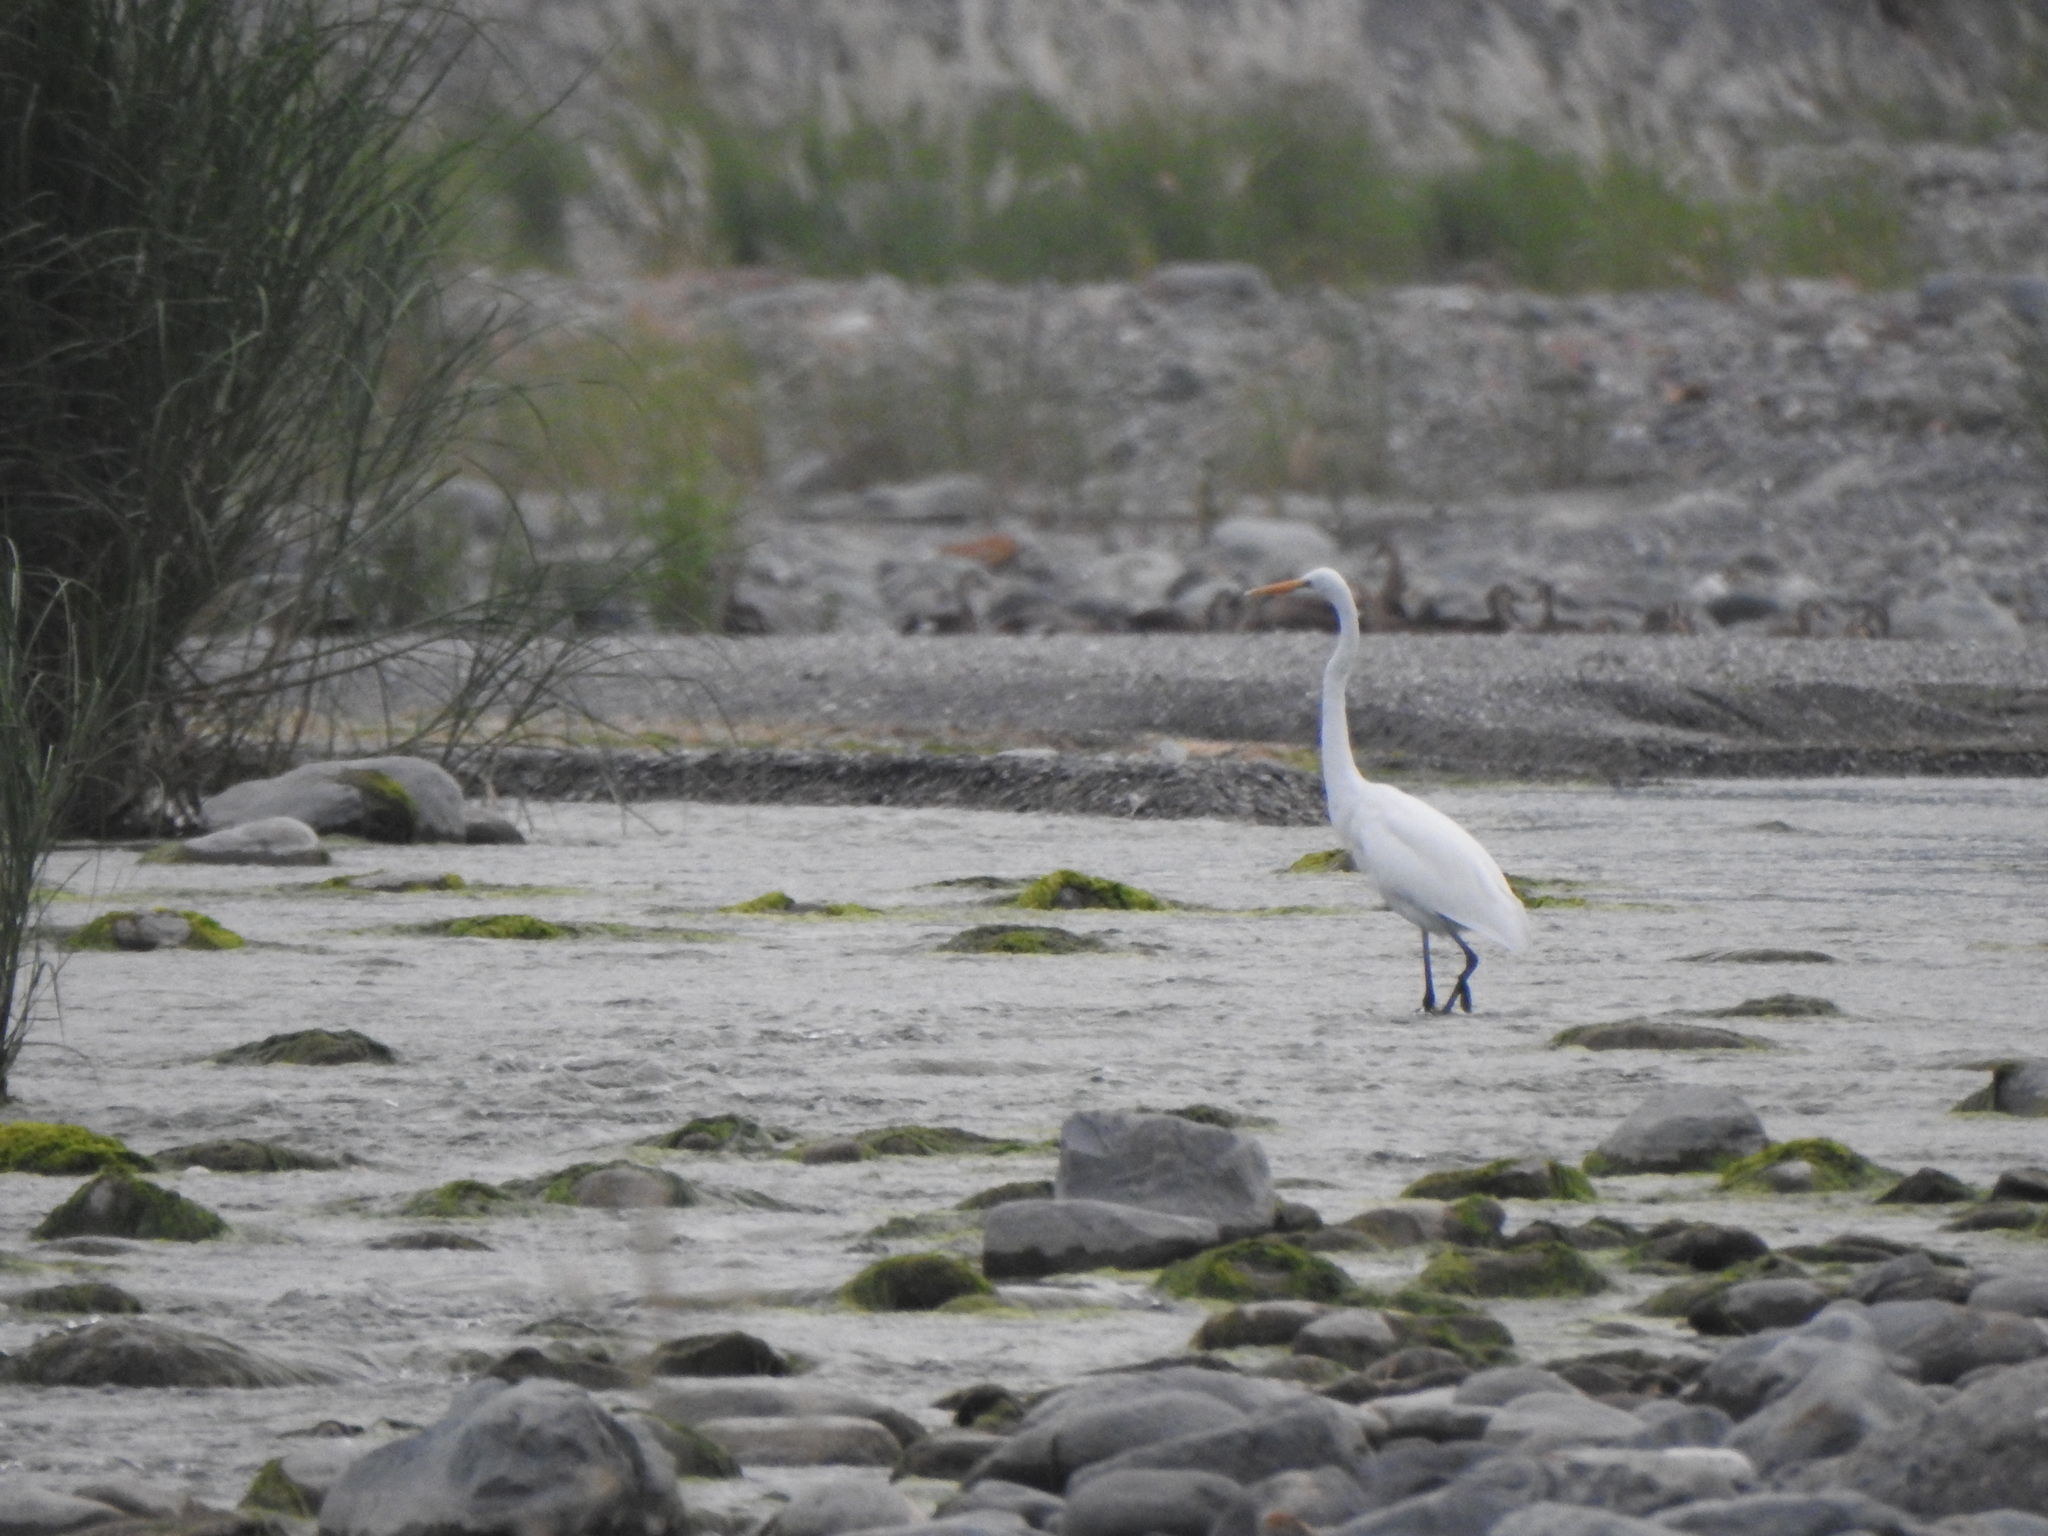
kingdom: Animalia
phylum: Chordata
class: Aves
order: Pelecaniformes
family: Ardeidae
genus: Ardea
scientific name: Ardea alba
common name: Great egret
